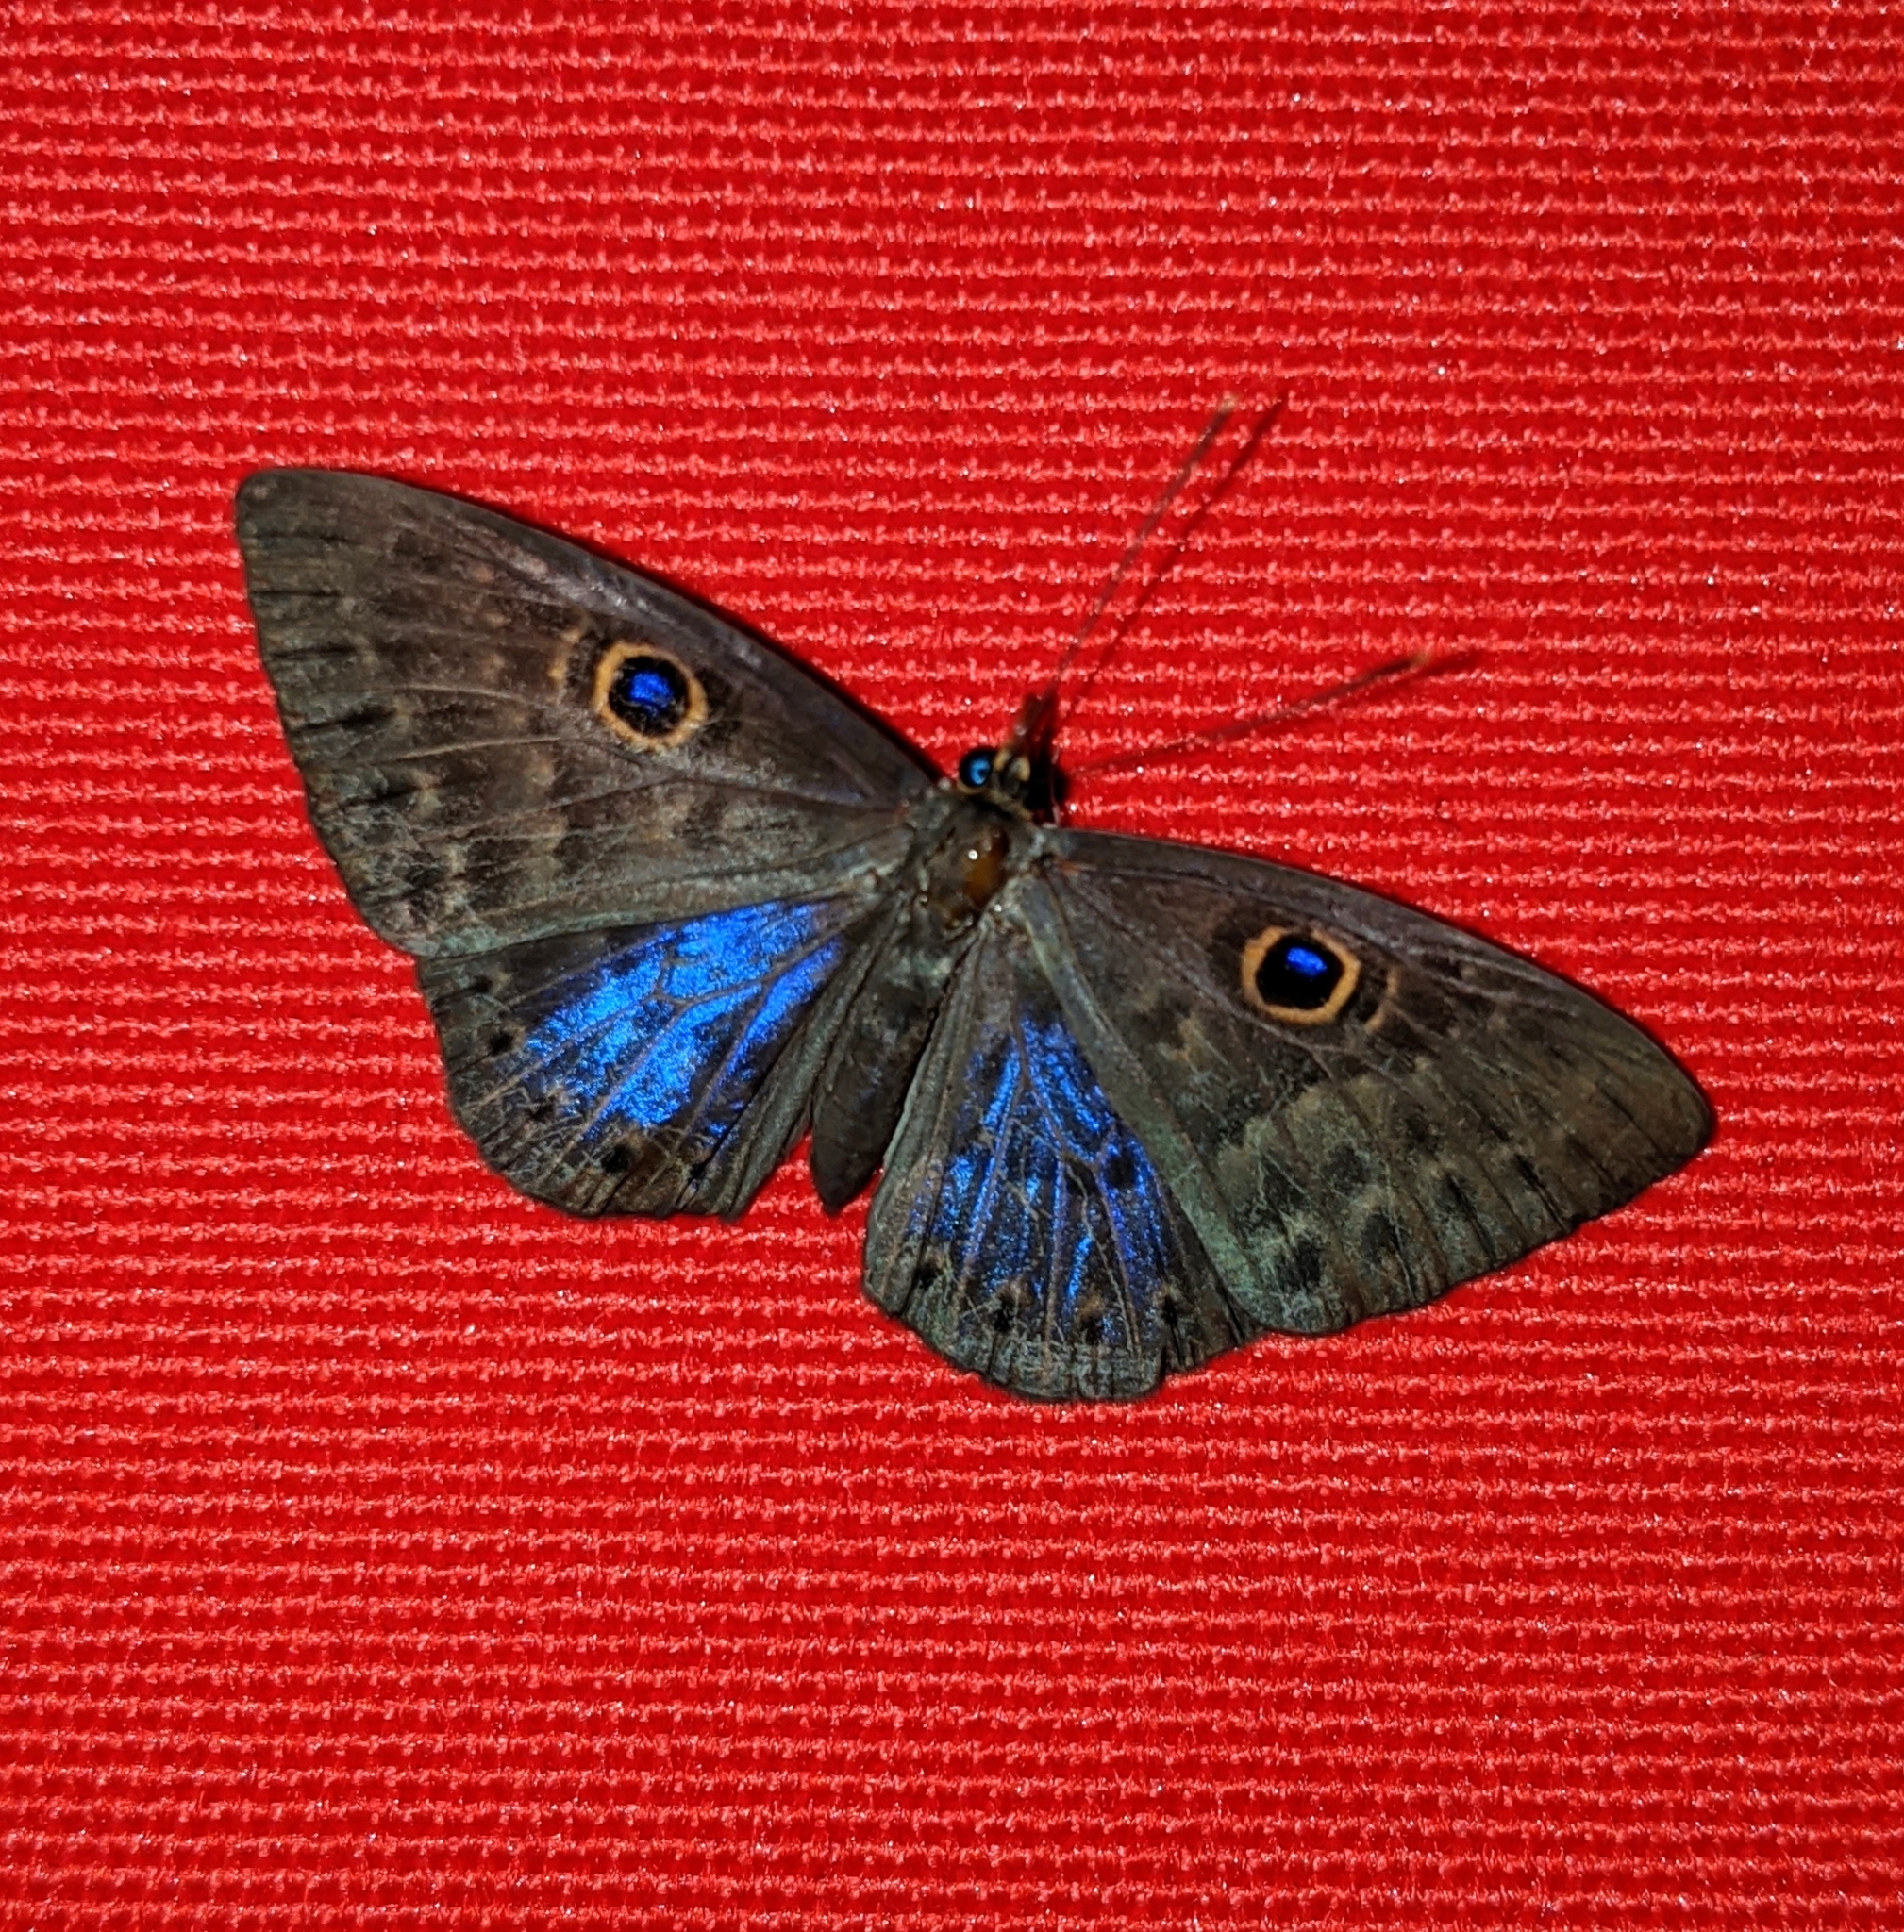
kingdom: Animalia
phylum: Cnidaria
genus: Eurybia
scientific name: Eurybia lycisca
